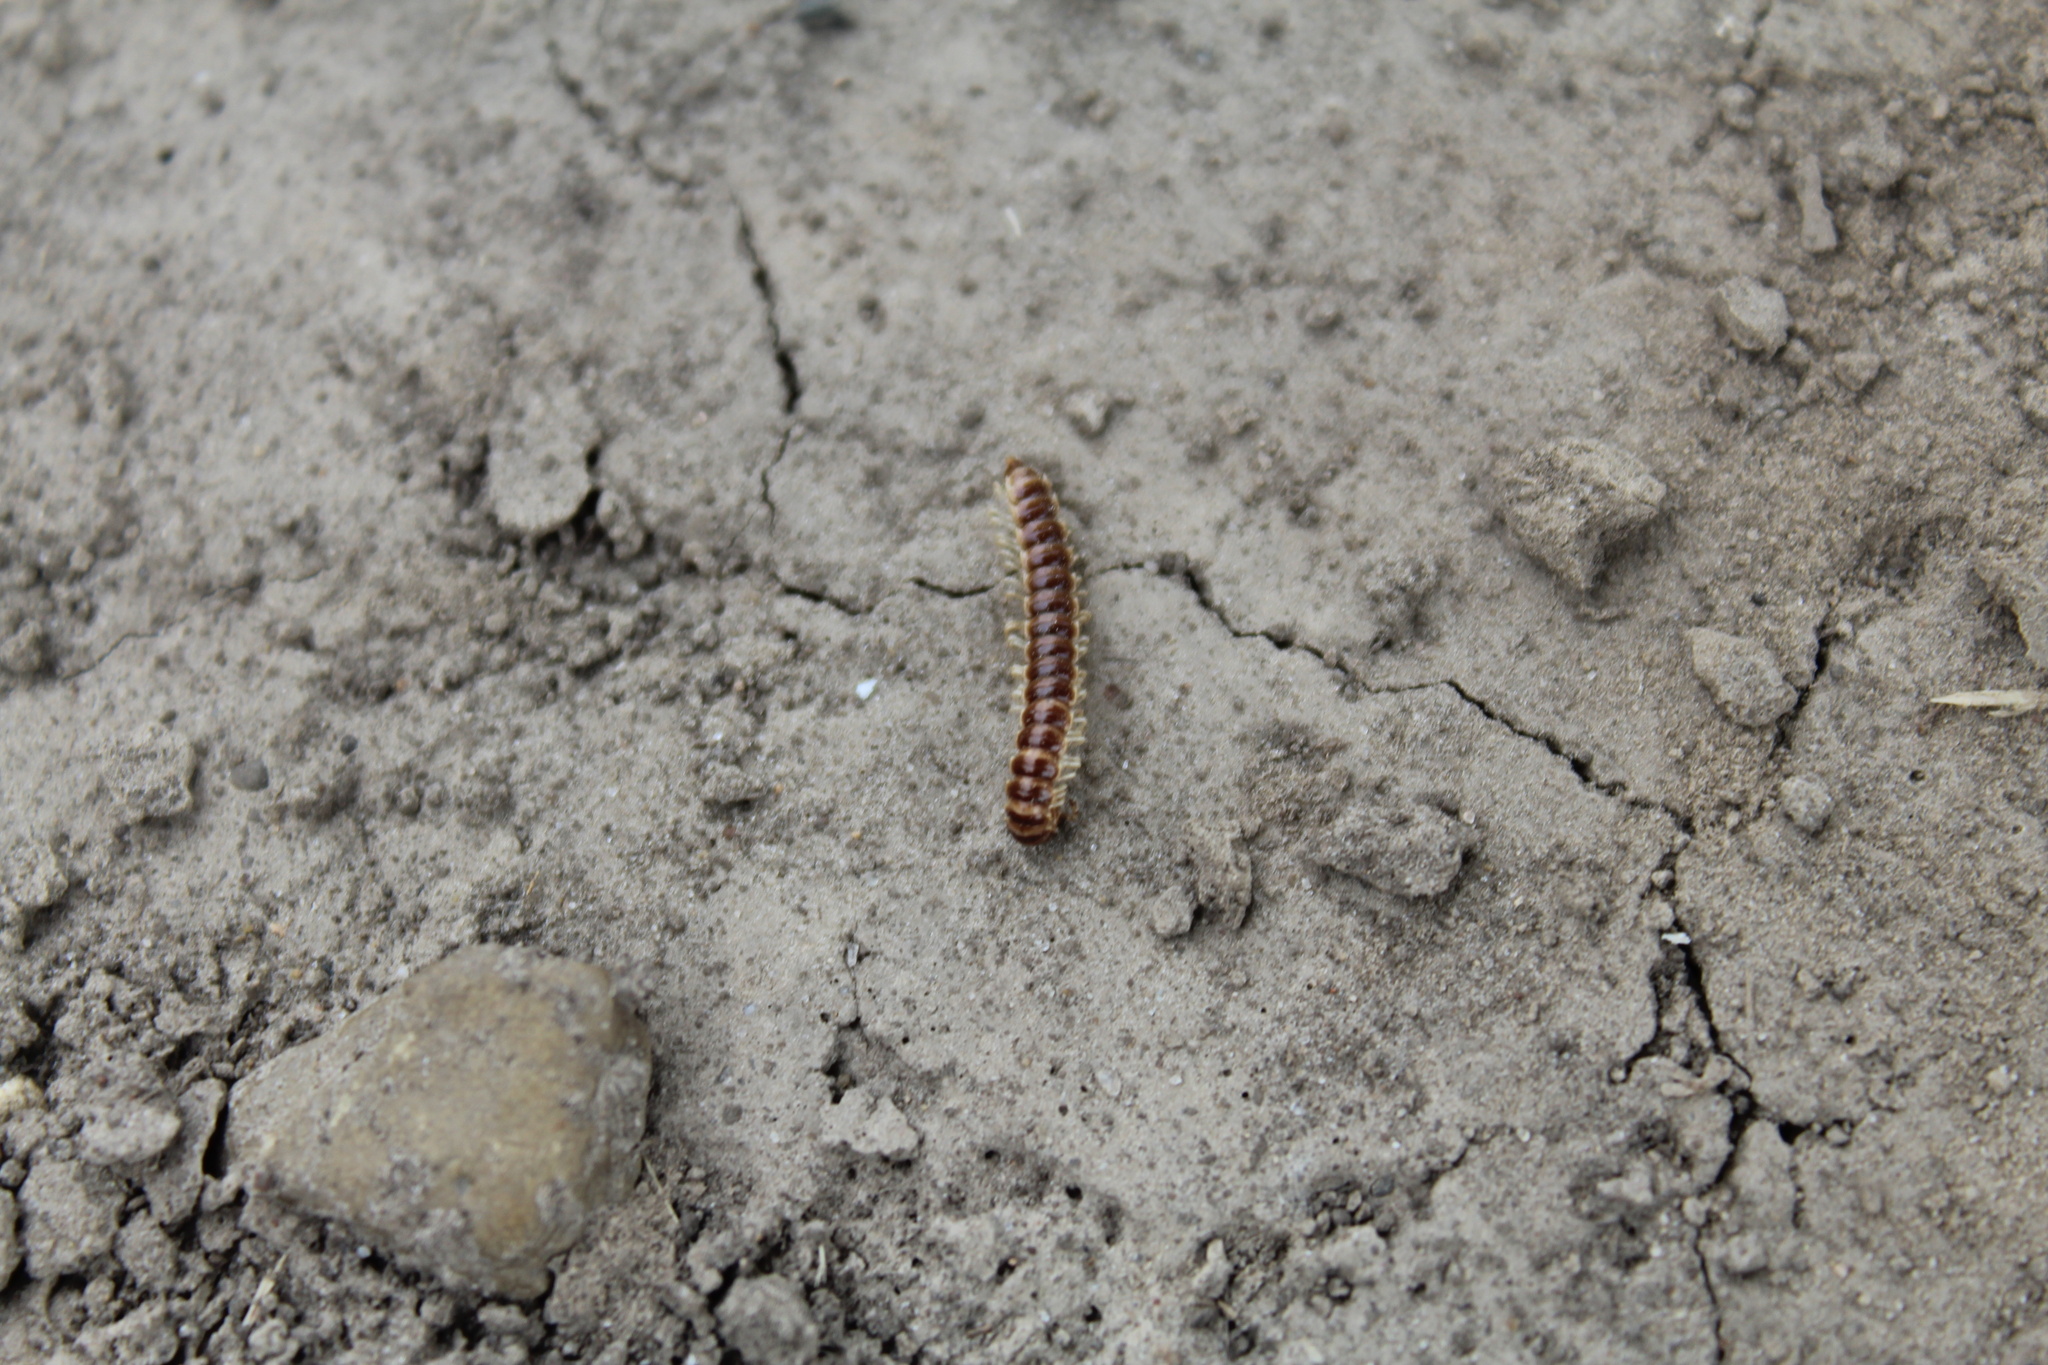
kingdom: Animalia
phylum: Arthropoda
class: Diplopoda
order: Polydesmida
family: Paradoxosomatidae
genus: Oxidus
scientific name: Oxidus gracilis
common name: Greenhouse millipede
